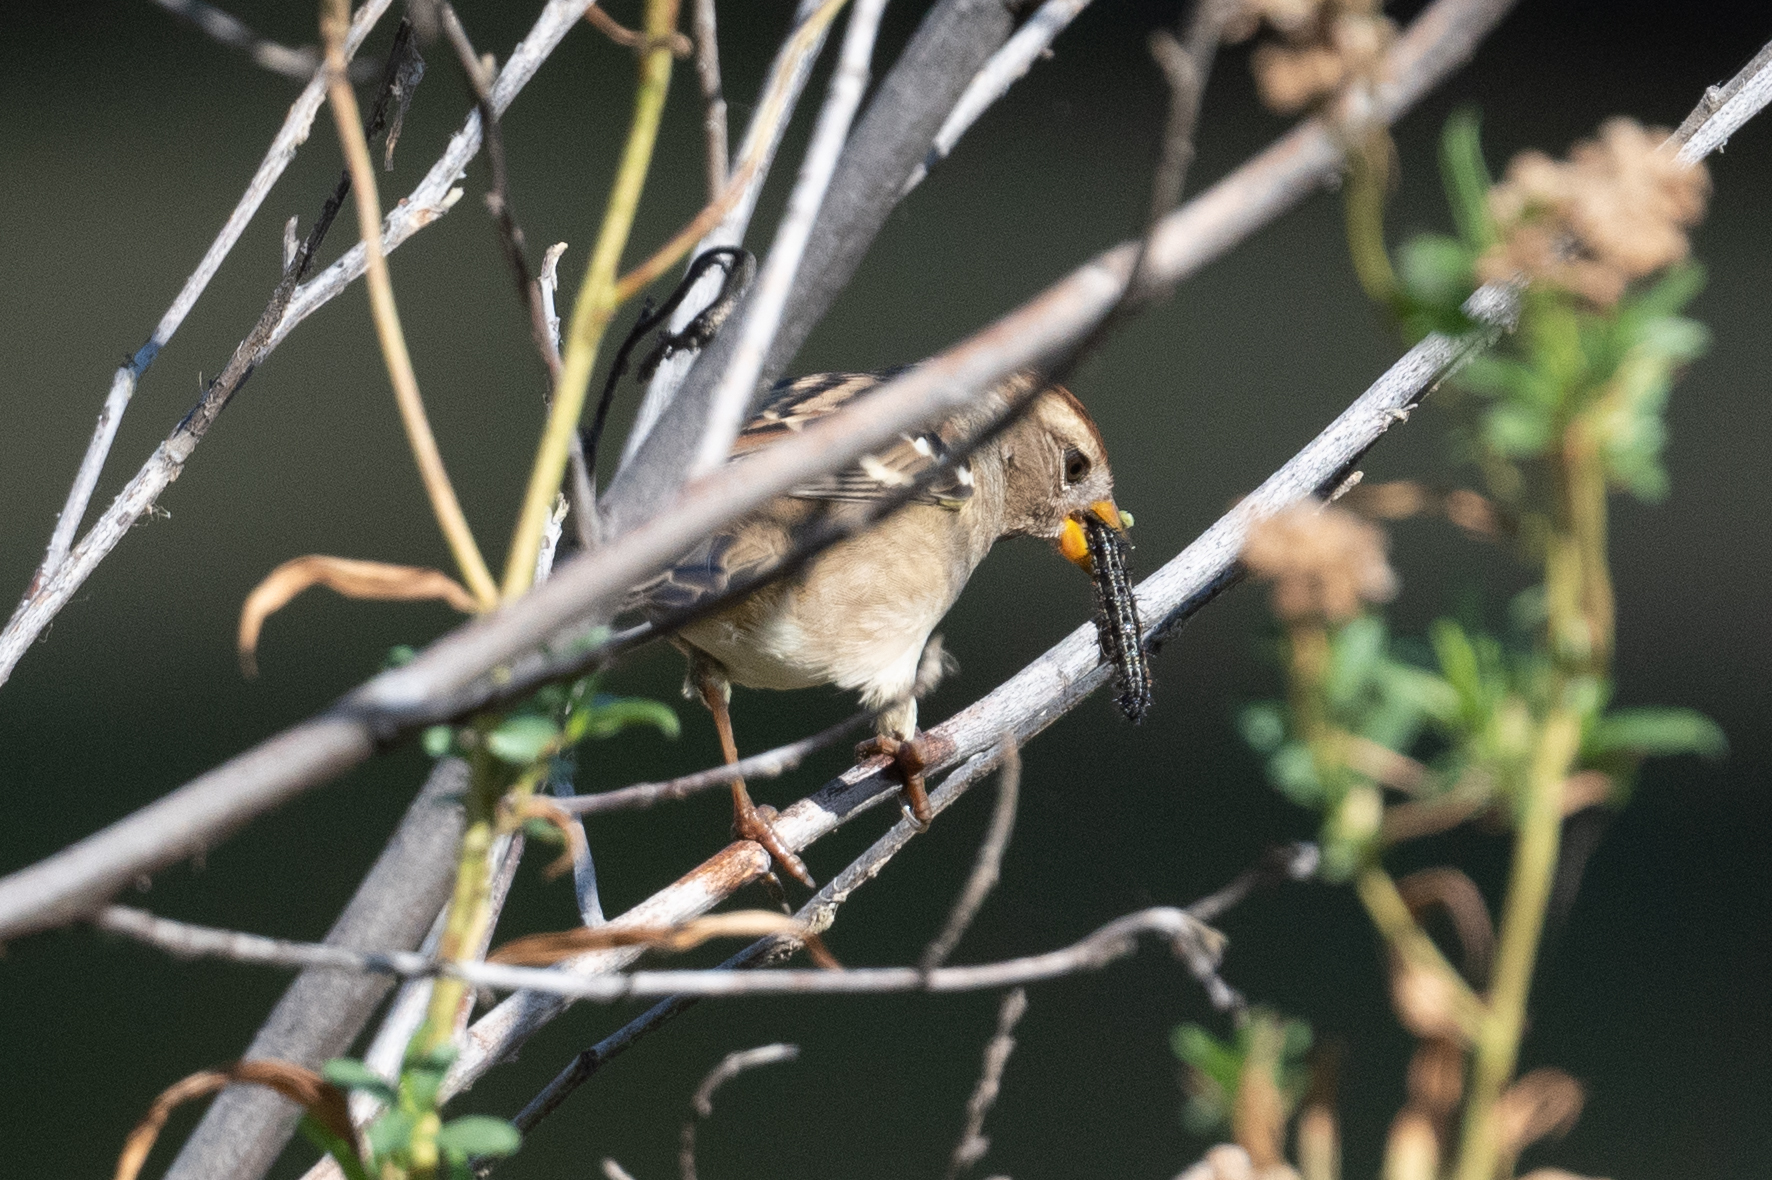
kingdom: Animalia
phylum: Chordata
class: Aves
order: Passeriformes
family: Passerellidae
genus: Zonotrichia
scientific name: Zonotrichia leucophrys
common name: White-crowned sparrow
